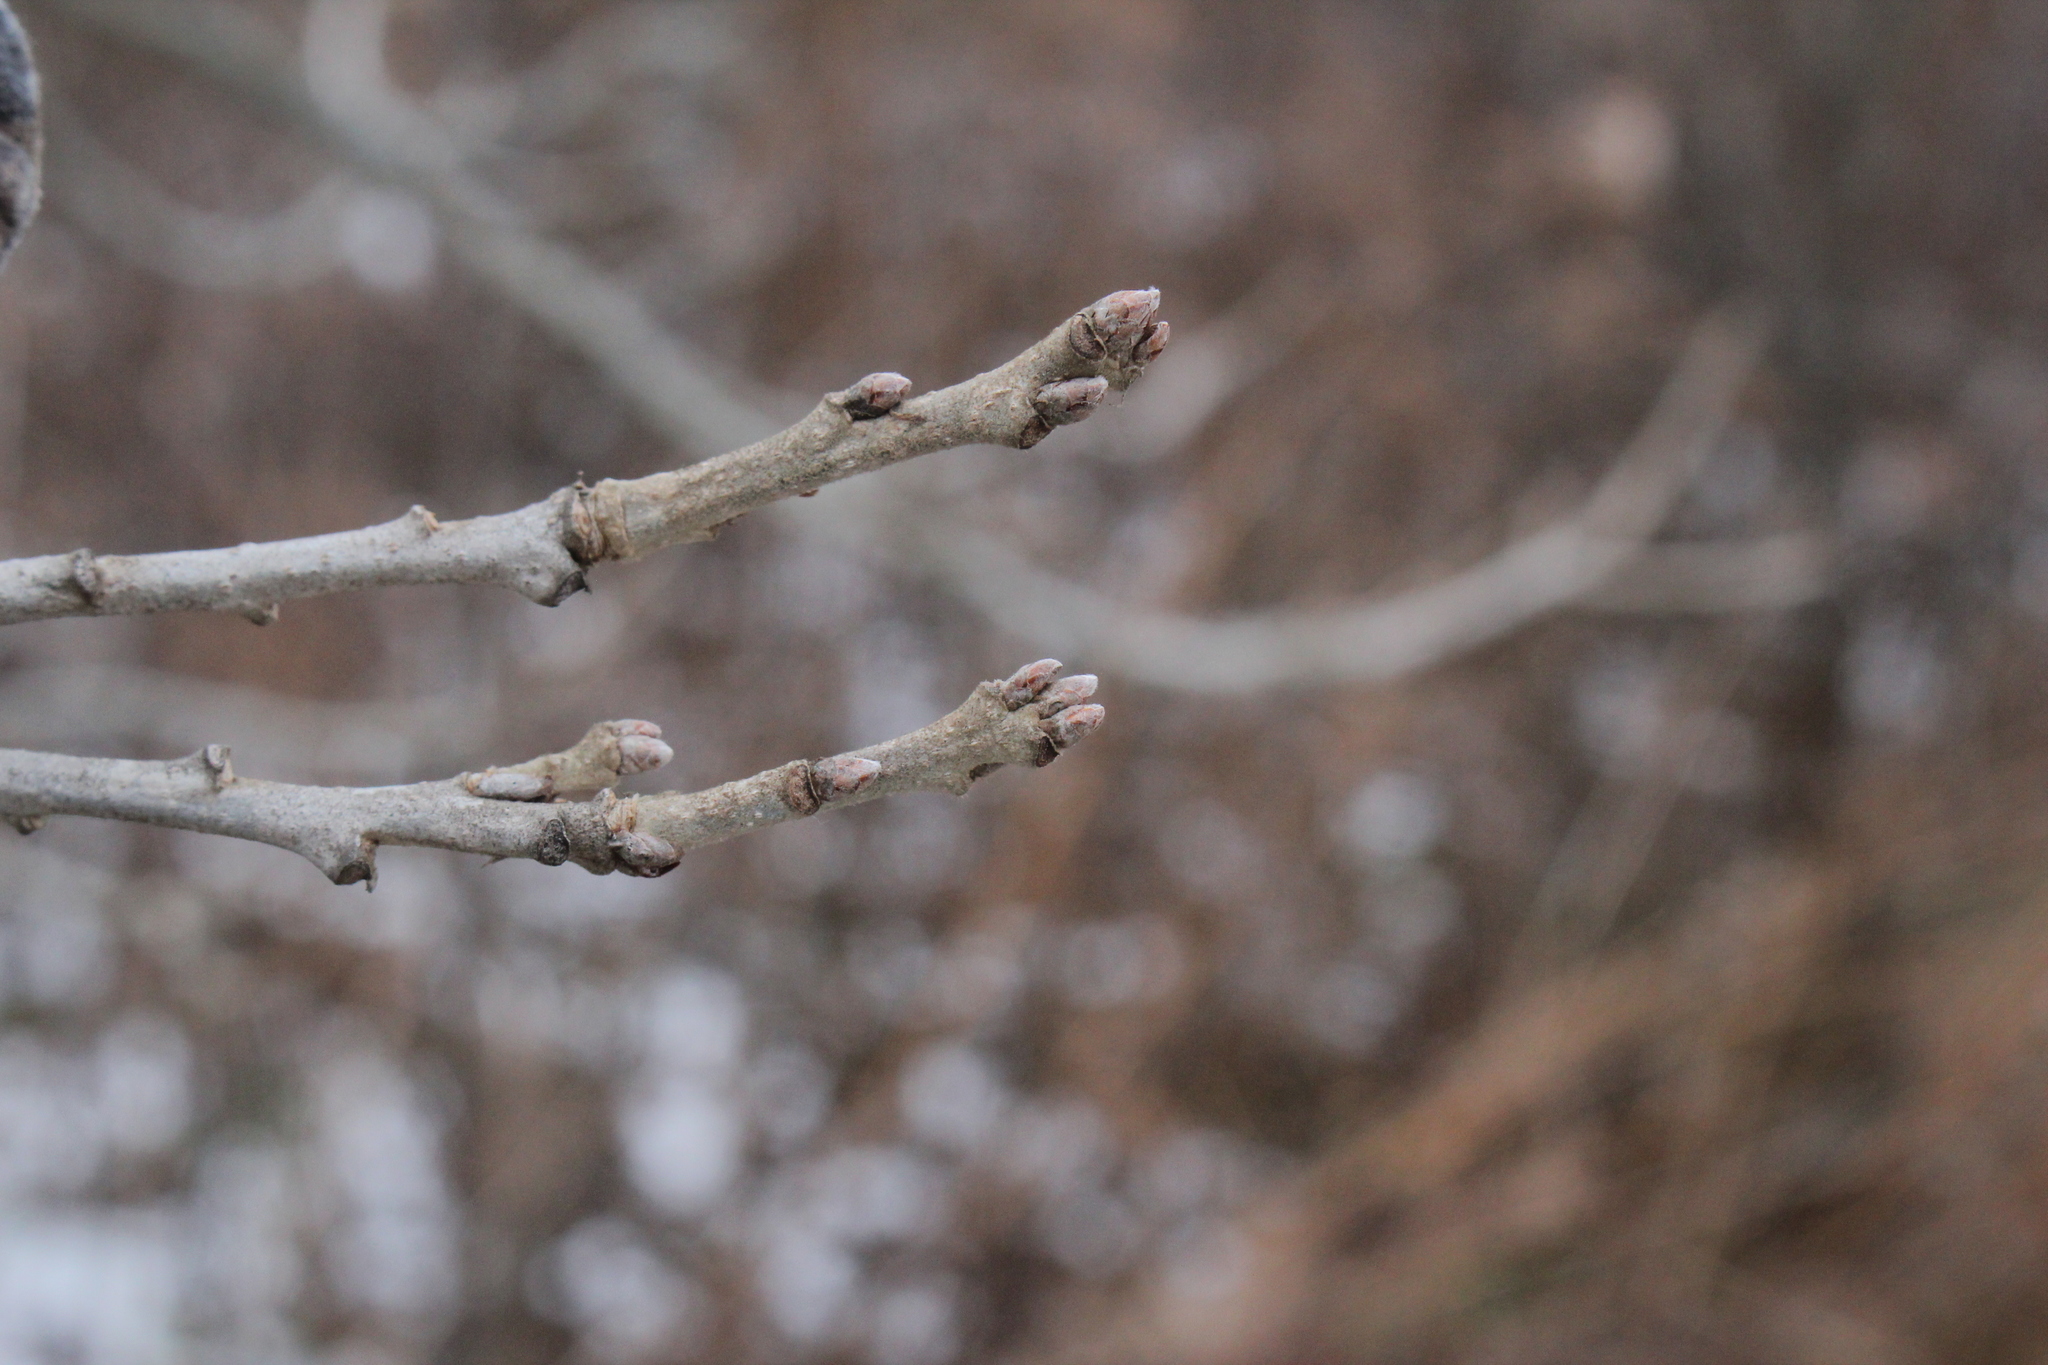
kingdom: Plantae
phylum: Tracheophyta
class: Magnoliopsida
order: Fagales
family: Fagaceae
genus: Quercus
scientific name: Quercus macrocarpa
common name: Bur oak
